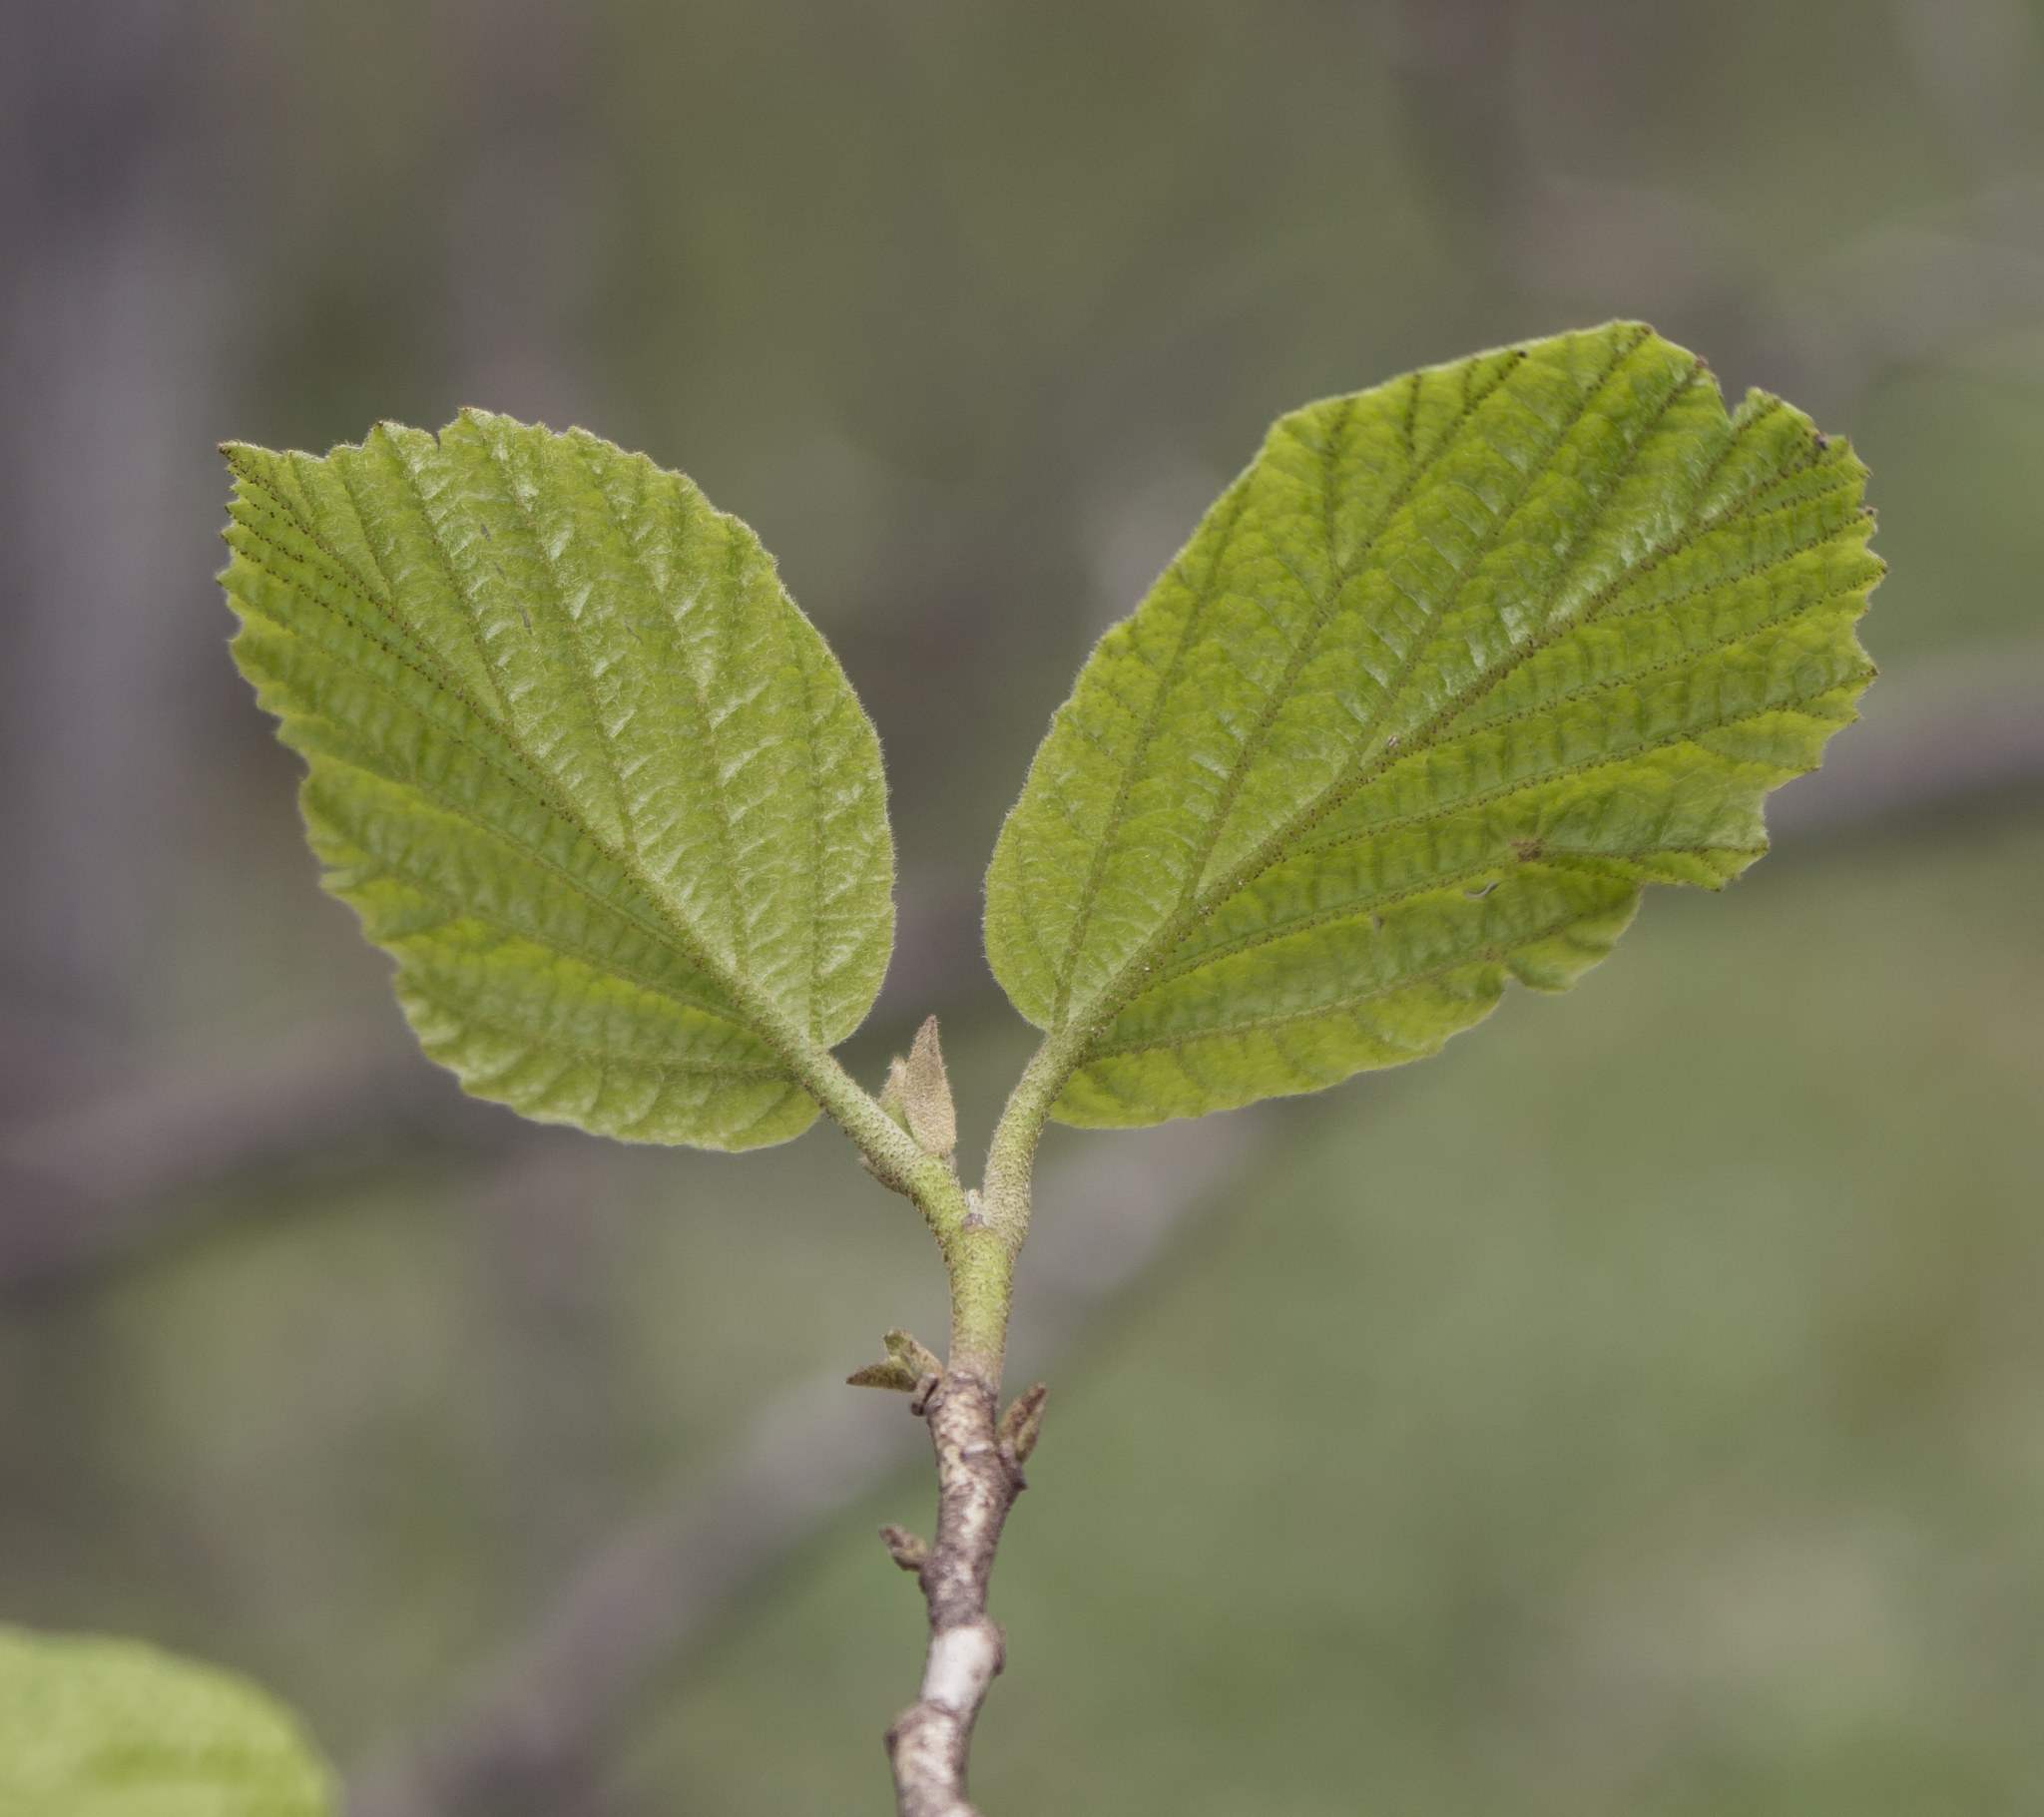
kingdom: Plantae
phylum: Tracheophyta
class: Magnoliopsida
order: Saxifragales
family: Hamamelidaceae
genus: Hamamelis
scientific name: Hamamelis virginiana
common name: Witch-hazel
